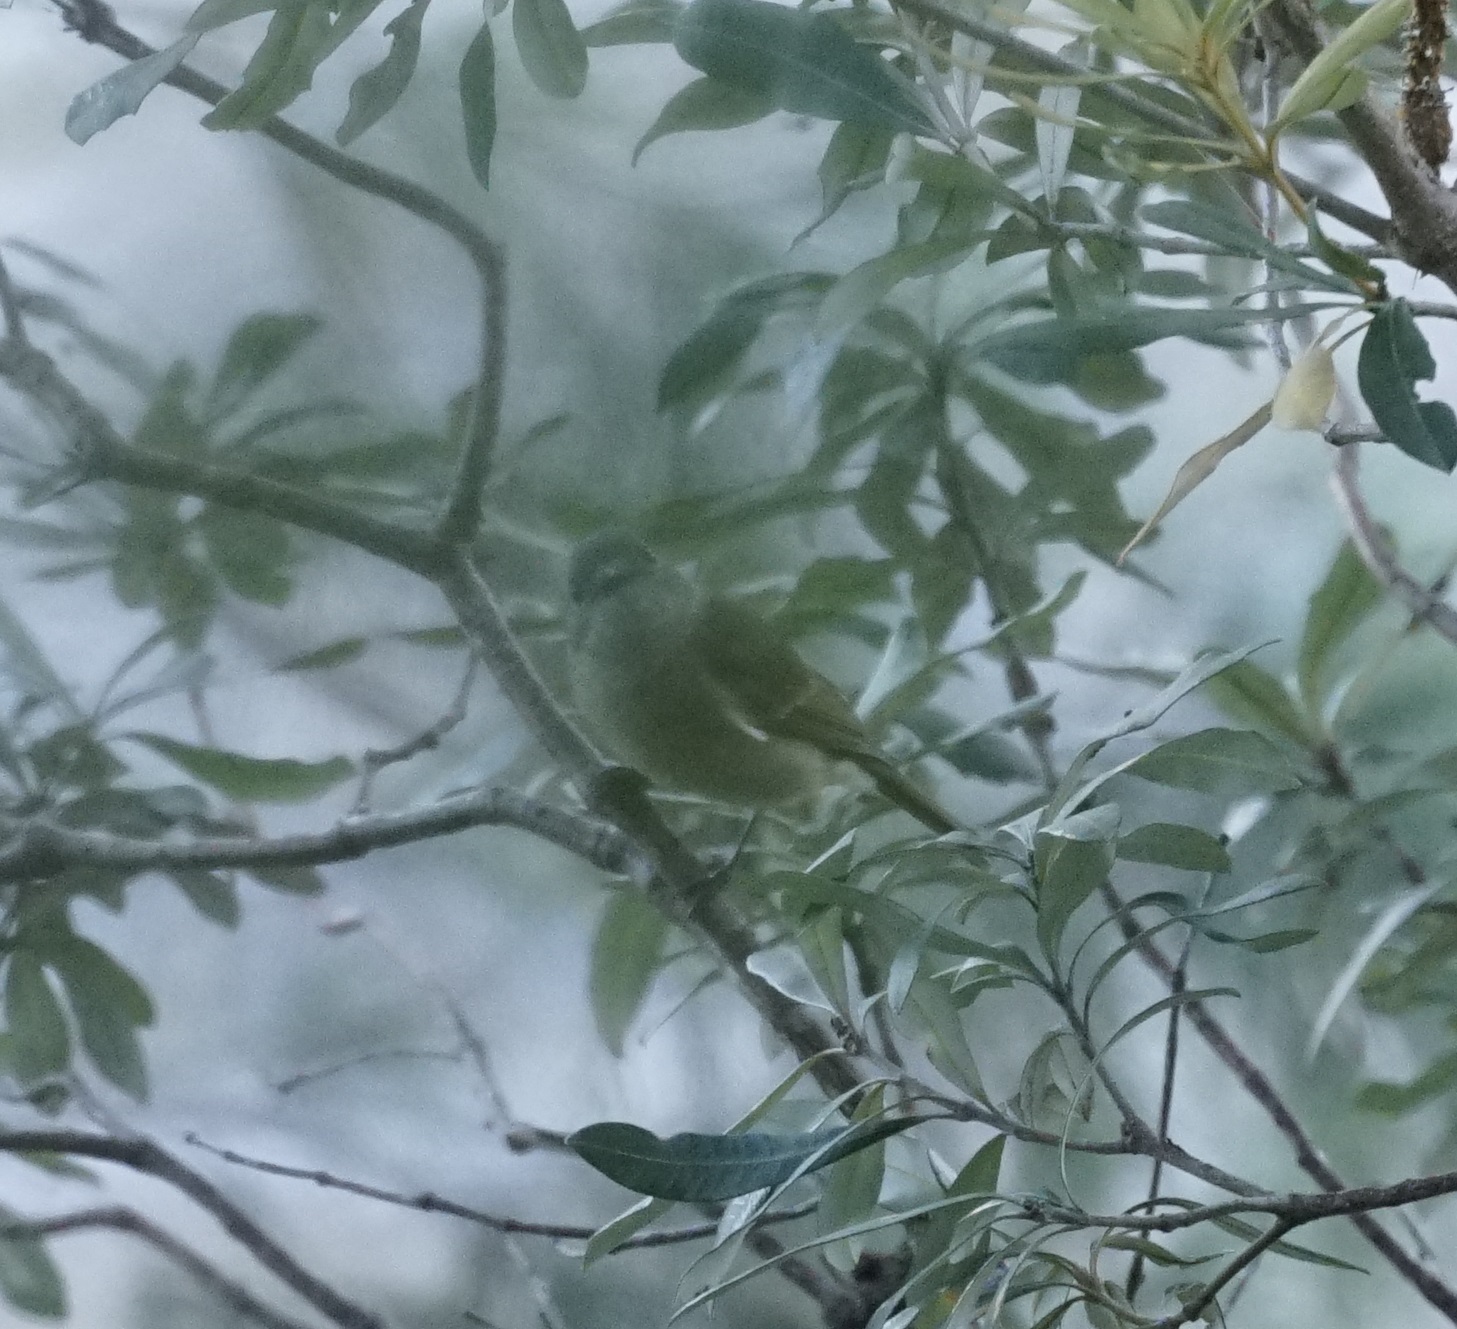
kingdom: Animalia
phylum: Chordata
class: Aves
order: Passeriformes
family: Pachycephalidae
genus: Pachycephala
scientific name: Pachycephala pectoralis
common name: Australian golden whistler
